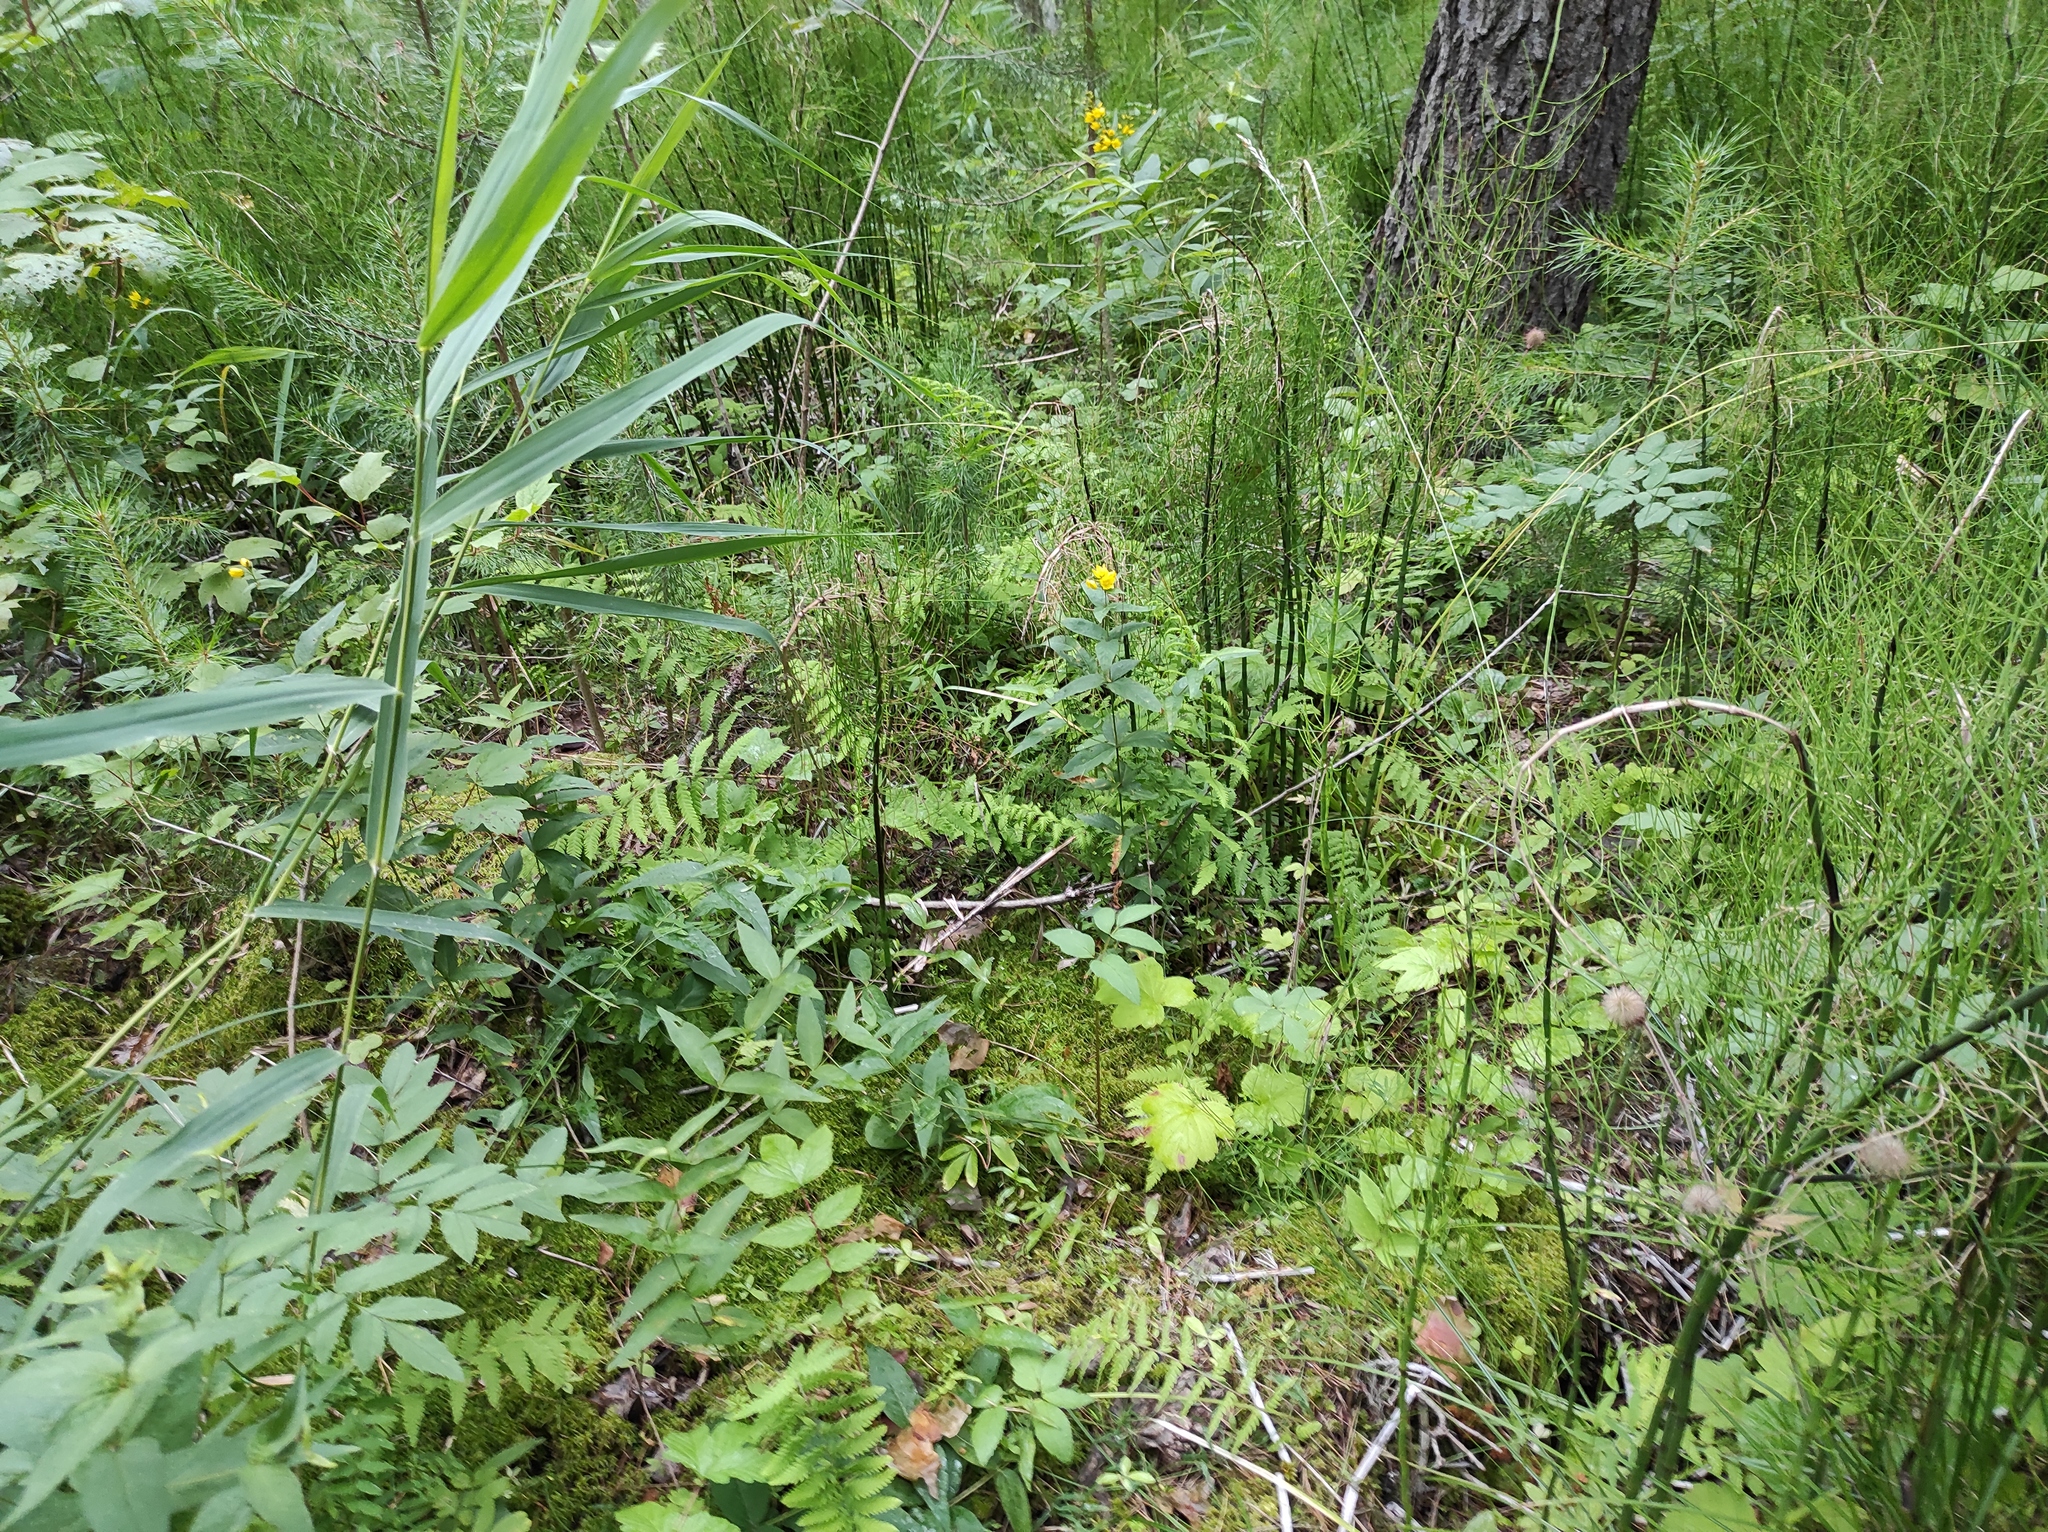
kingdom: Plantae
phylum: Tracheophyta
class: Magnoliopsida
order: Ericales
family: Primulaceae
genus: Lysimachia
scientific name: Lysimachia vulgaris
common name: Yellow loosestrife
